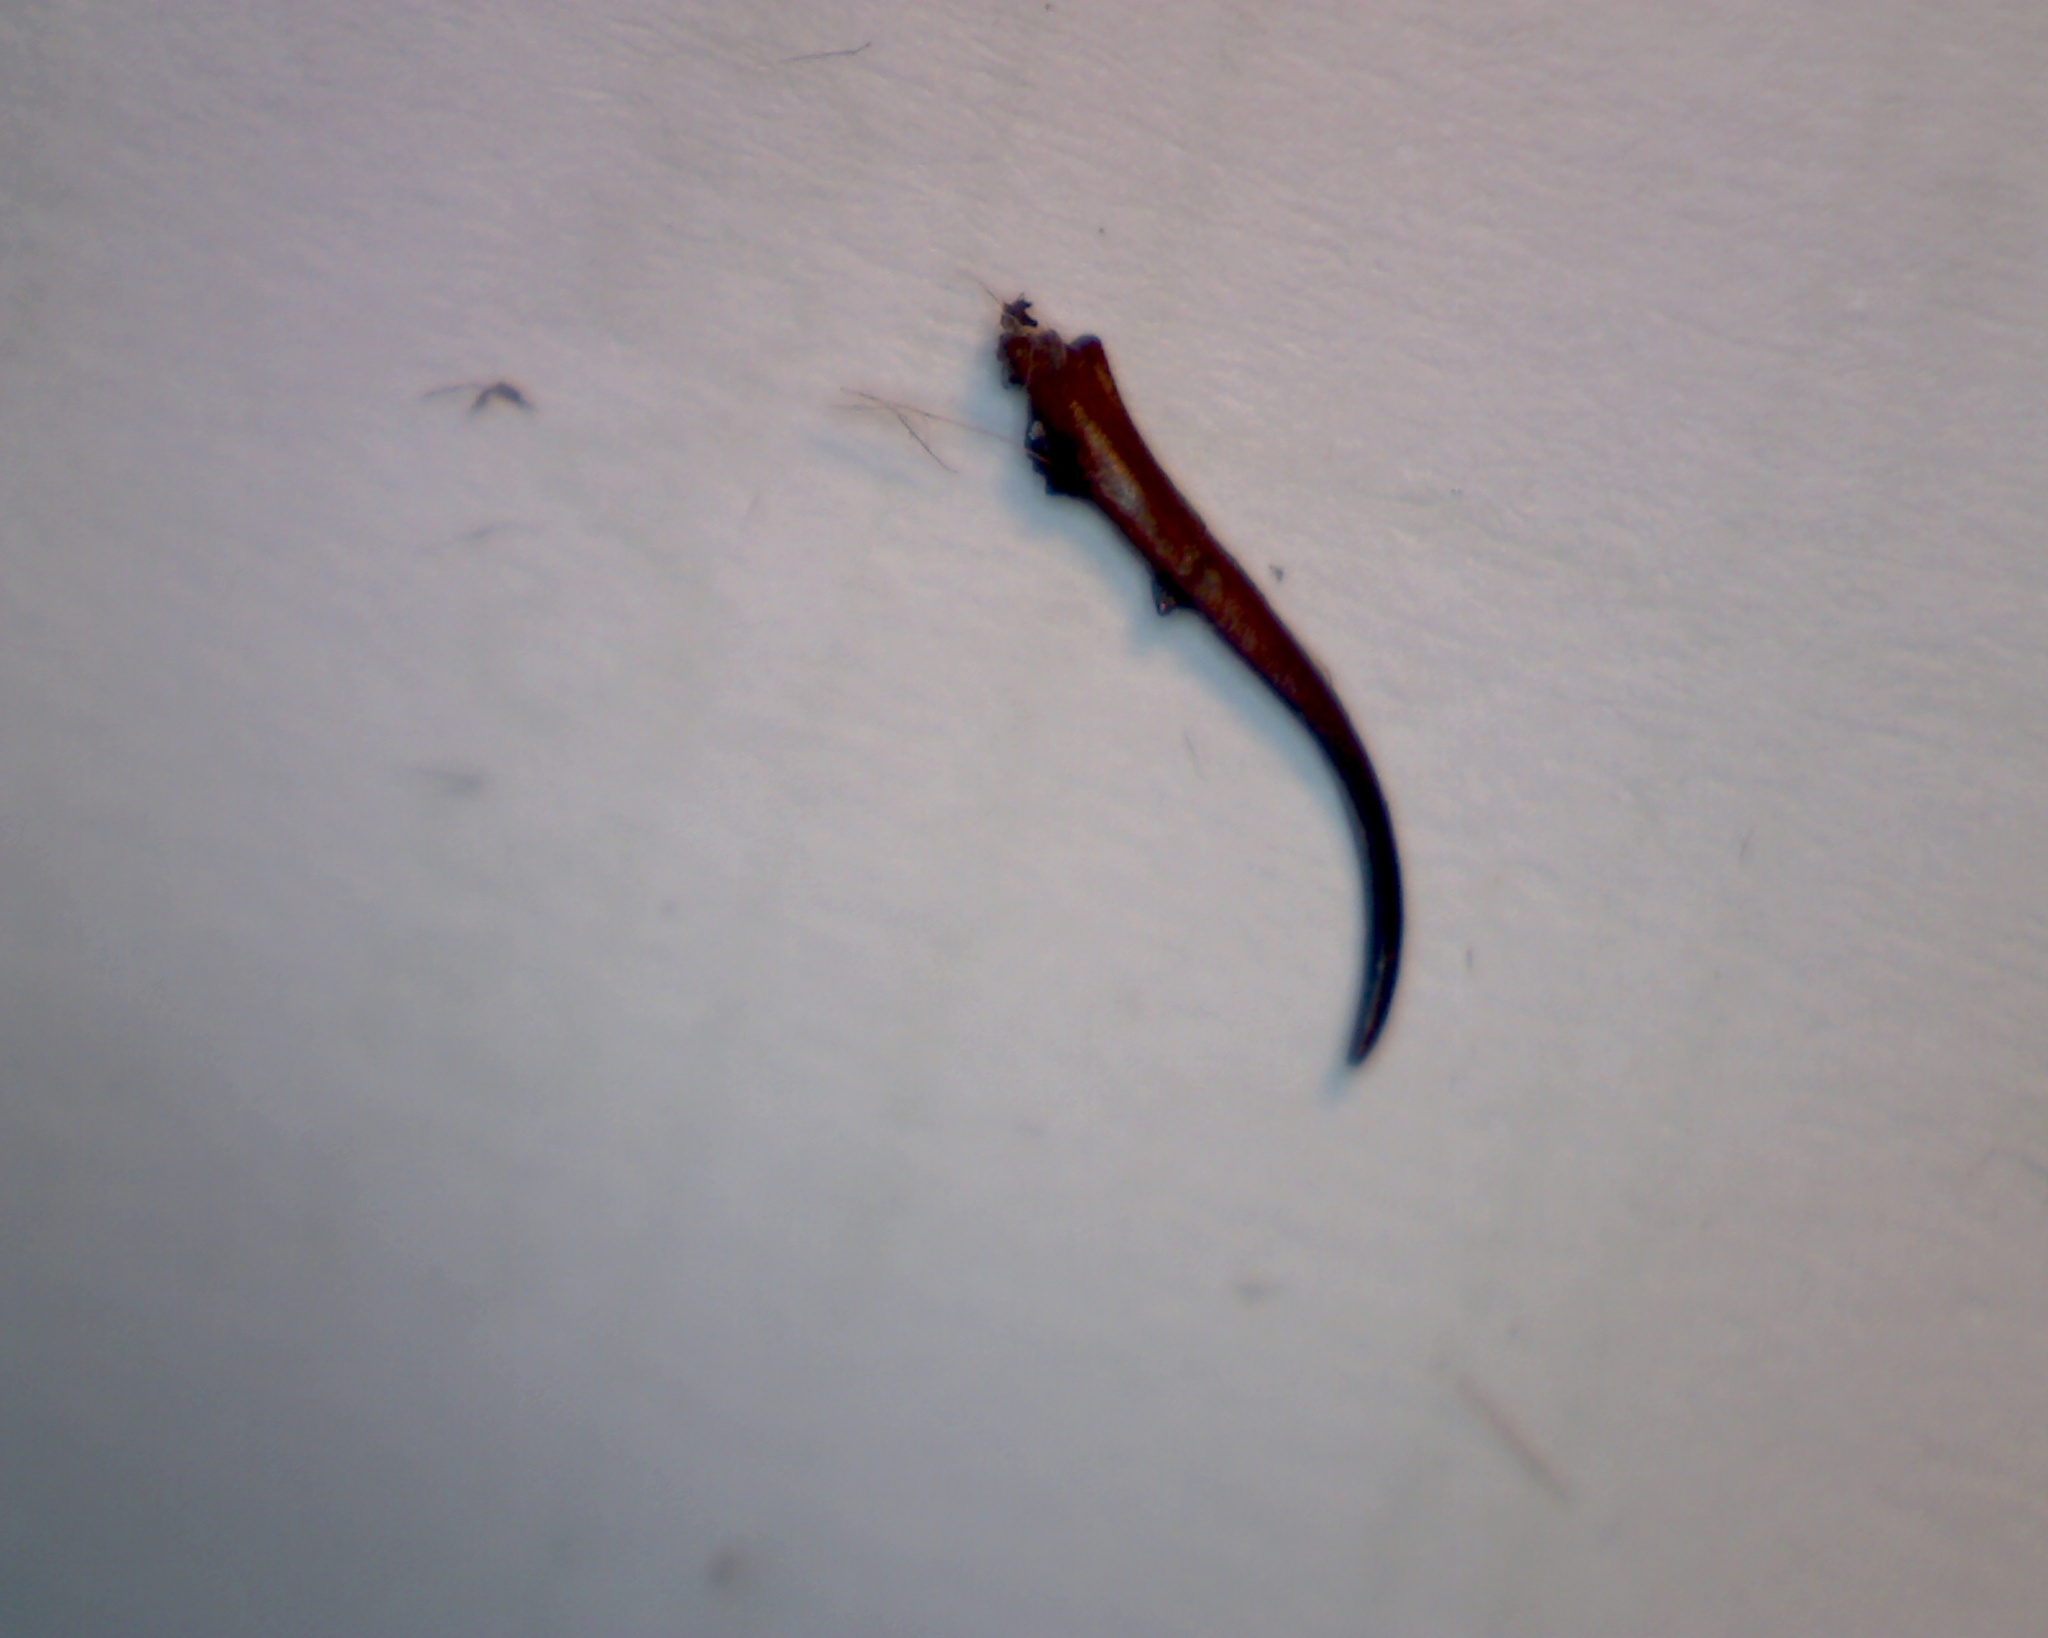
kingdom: Animalia
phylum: Arthropoda
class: Insecta
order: Dermaptera
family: Forficulidae
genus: Forficula
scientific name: Forficula
